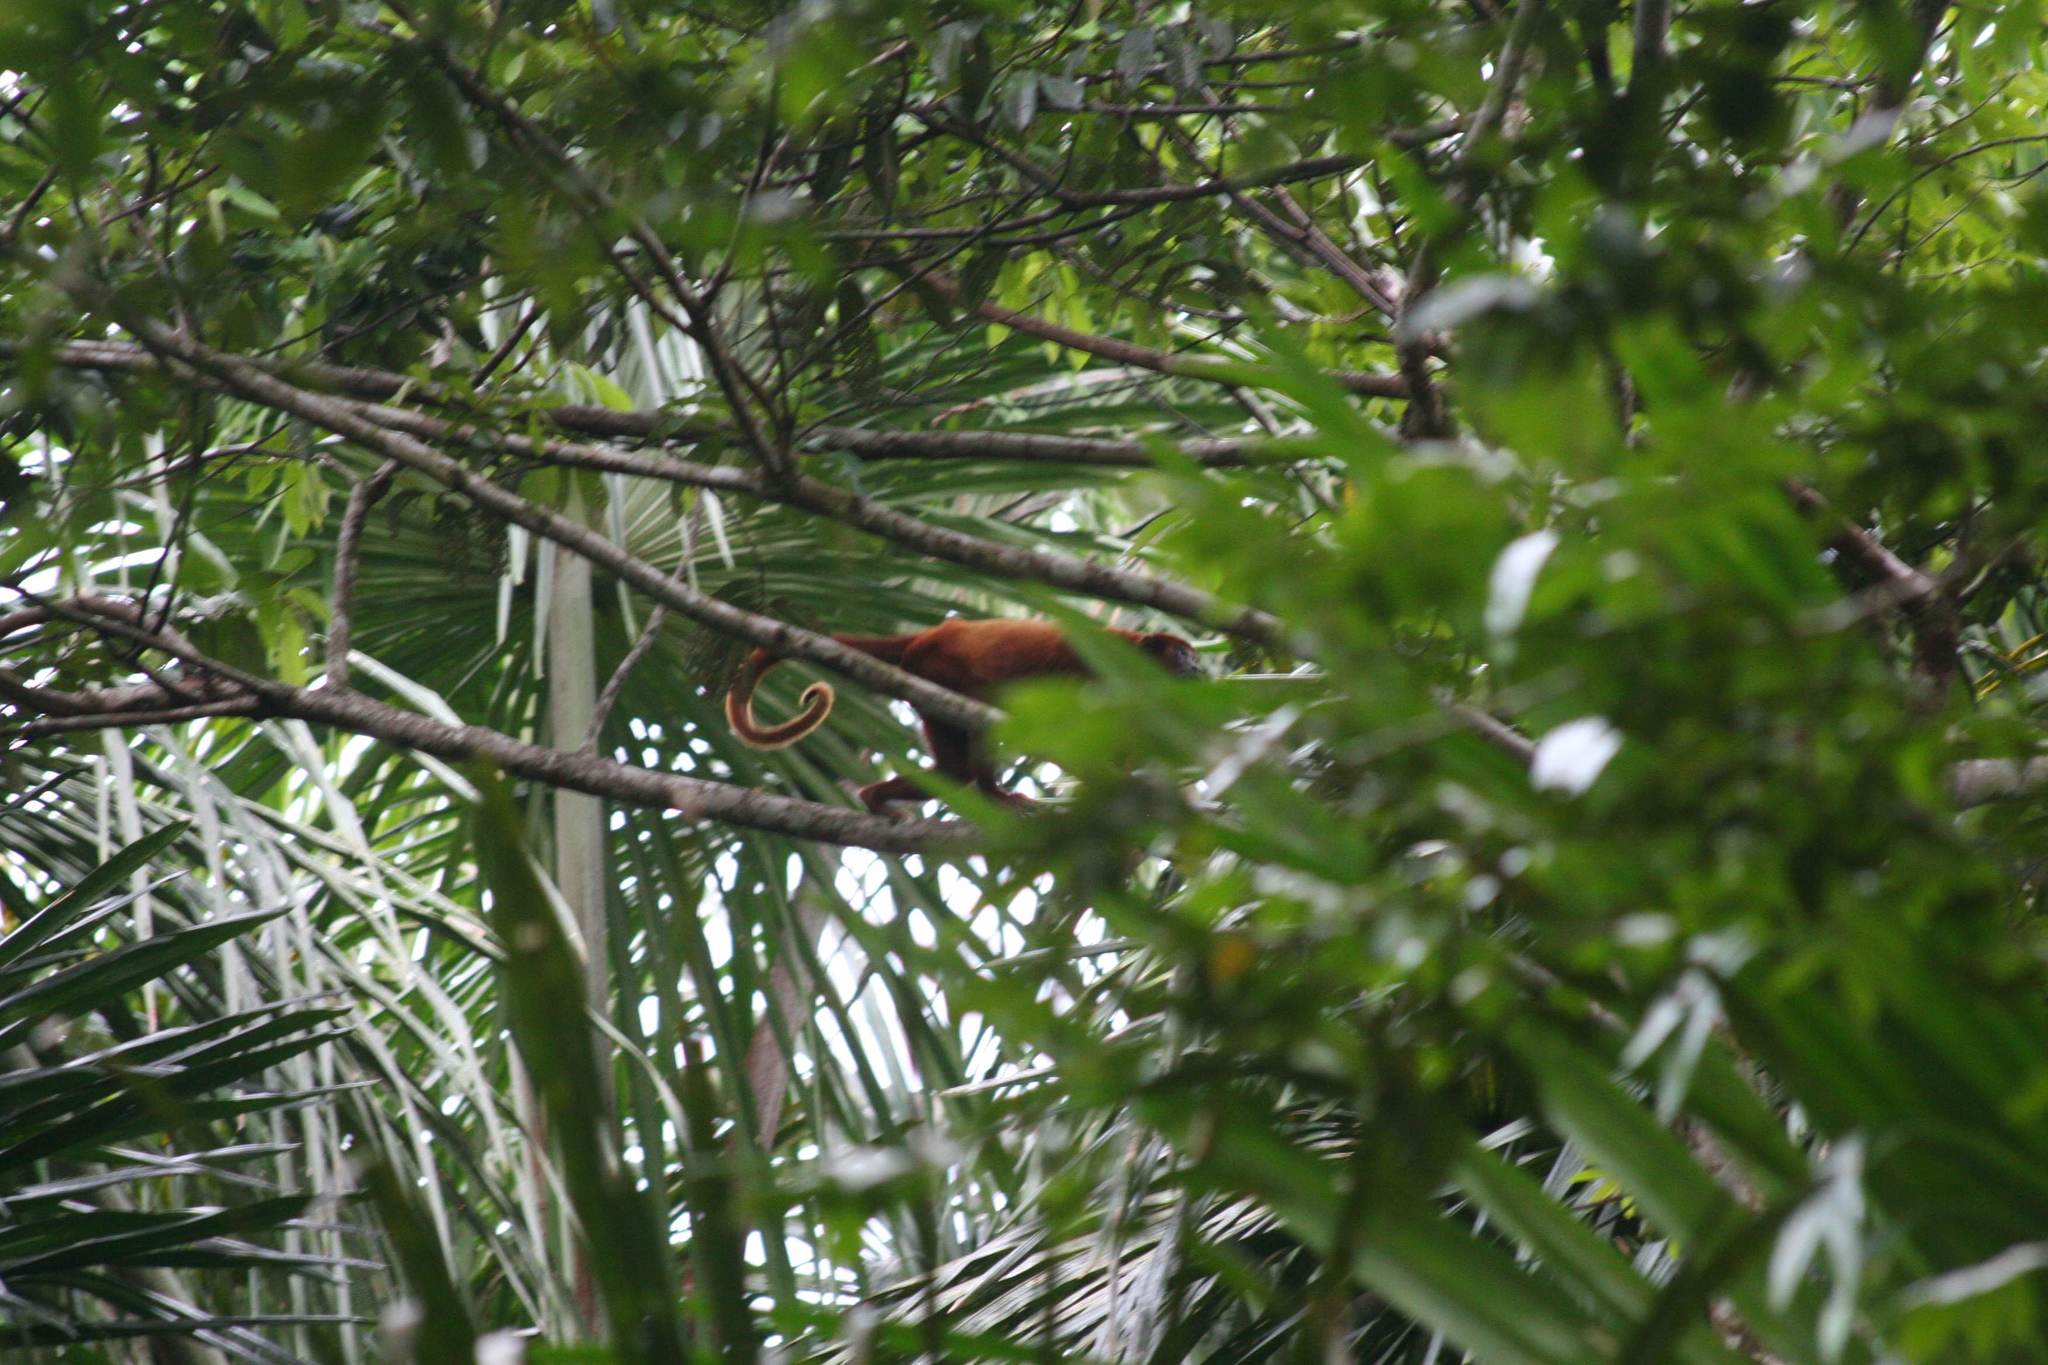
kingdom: Animalia
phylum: Chordata
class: Mammalia
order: Primates
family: Atelidae
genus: Alouatta
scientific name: Alouatta seniculus
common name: Venezuelan red howler
